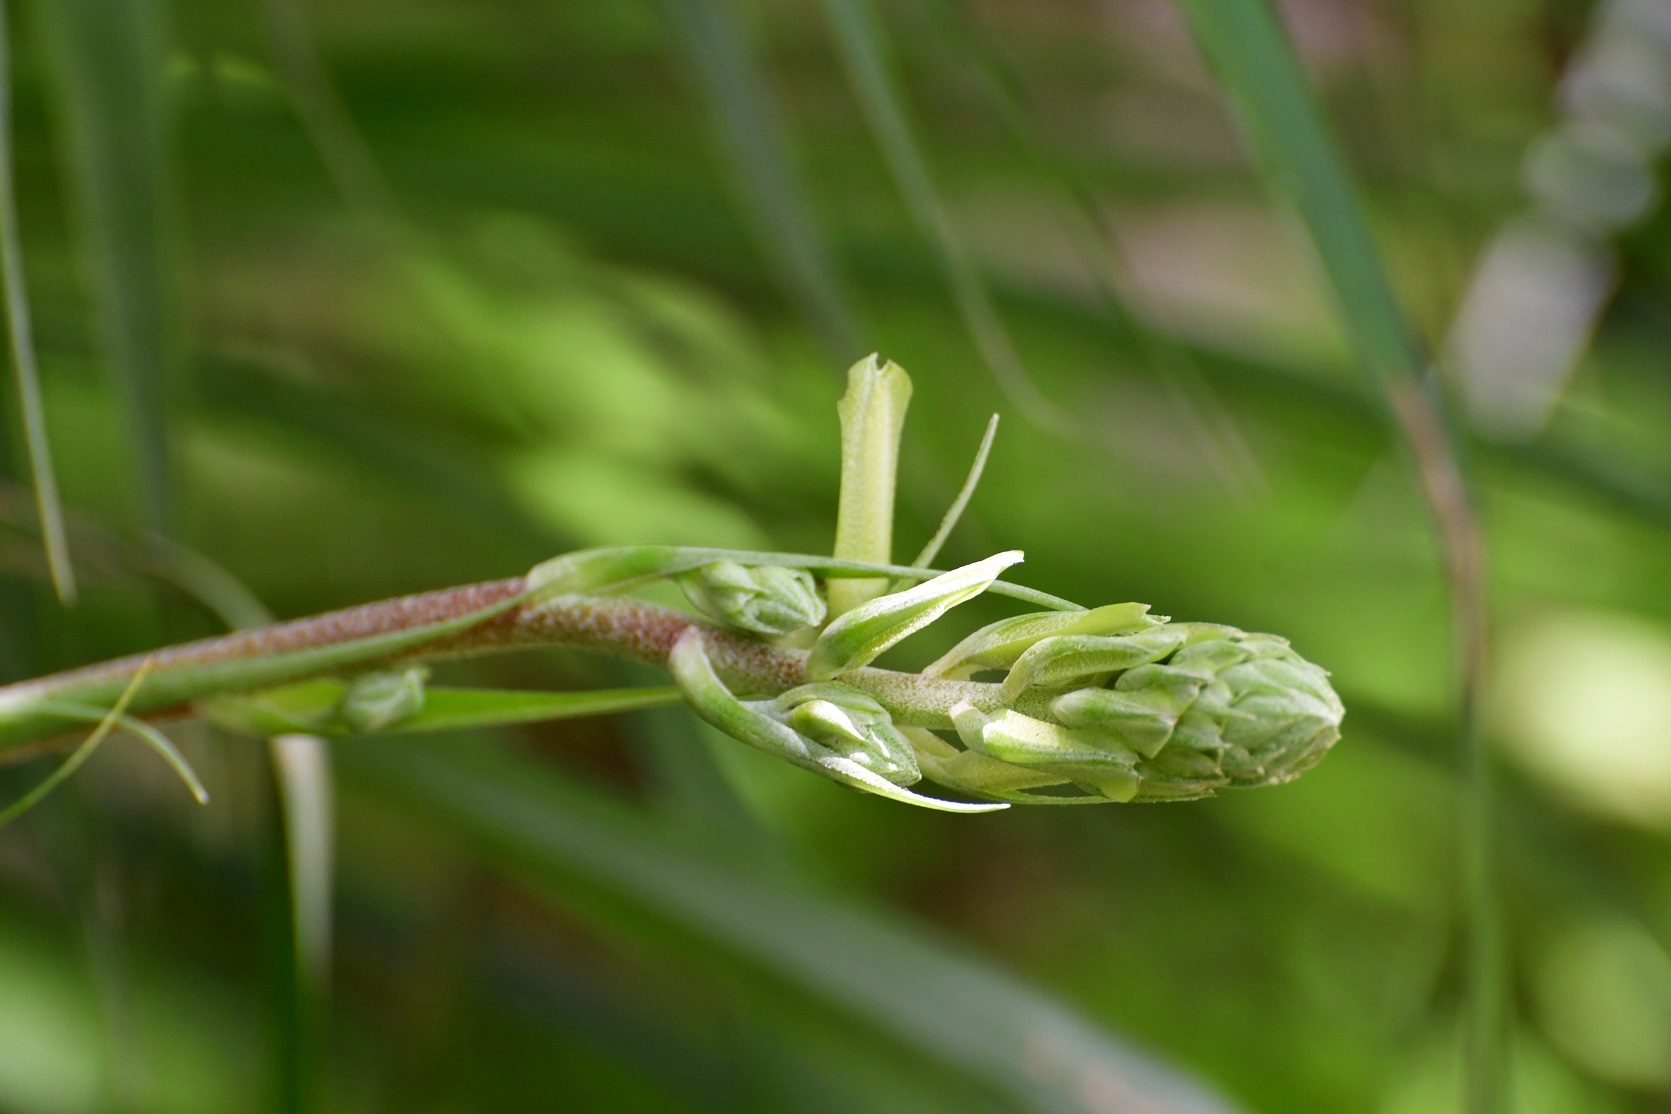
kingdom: Plantae
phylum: Tracheophyta
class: Liliopsida
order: Poales
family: Bromeliaceae
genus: Pitcairnia
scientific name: Pitcairnia breedlovei
